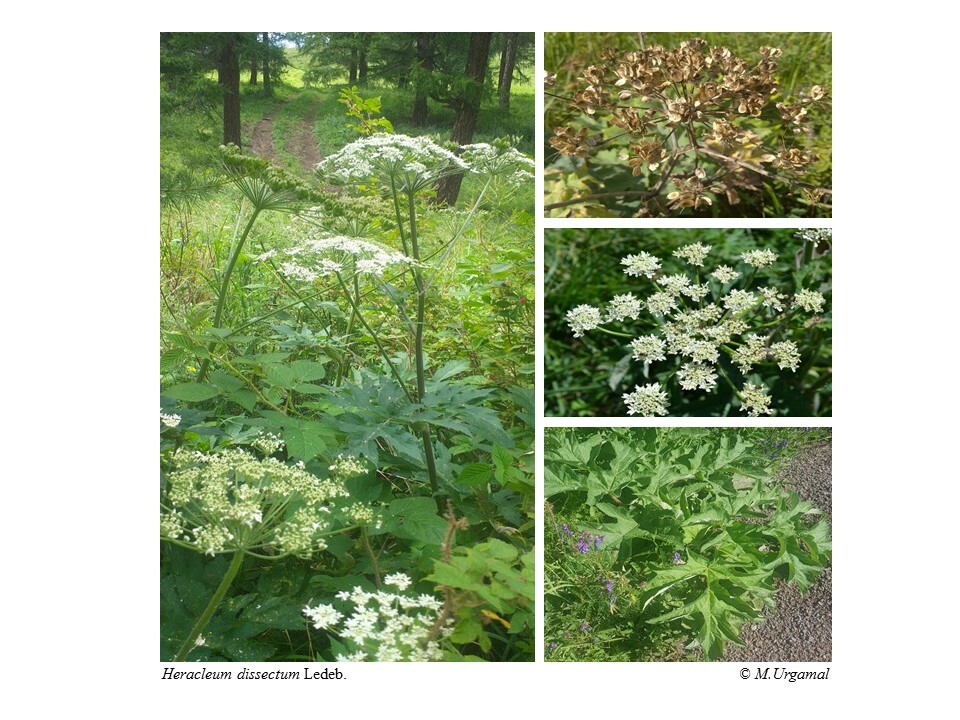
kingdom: Plantae
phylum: Tracheophyta
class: Magnoliopsida
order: Apiales
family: Apiaceae
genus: Heracleum
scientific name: Heracleum dissectum
